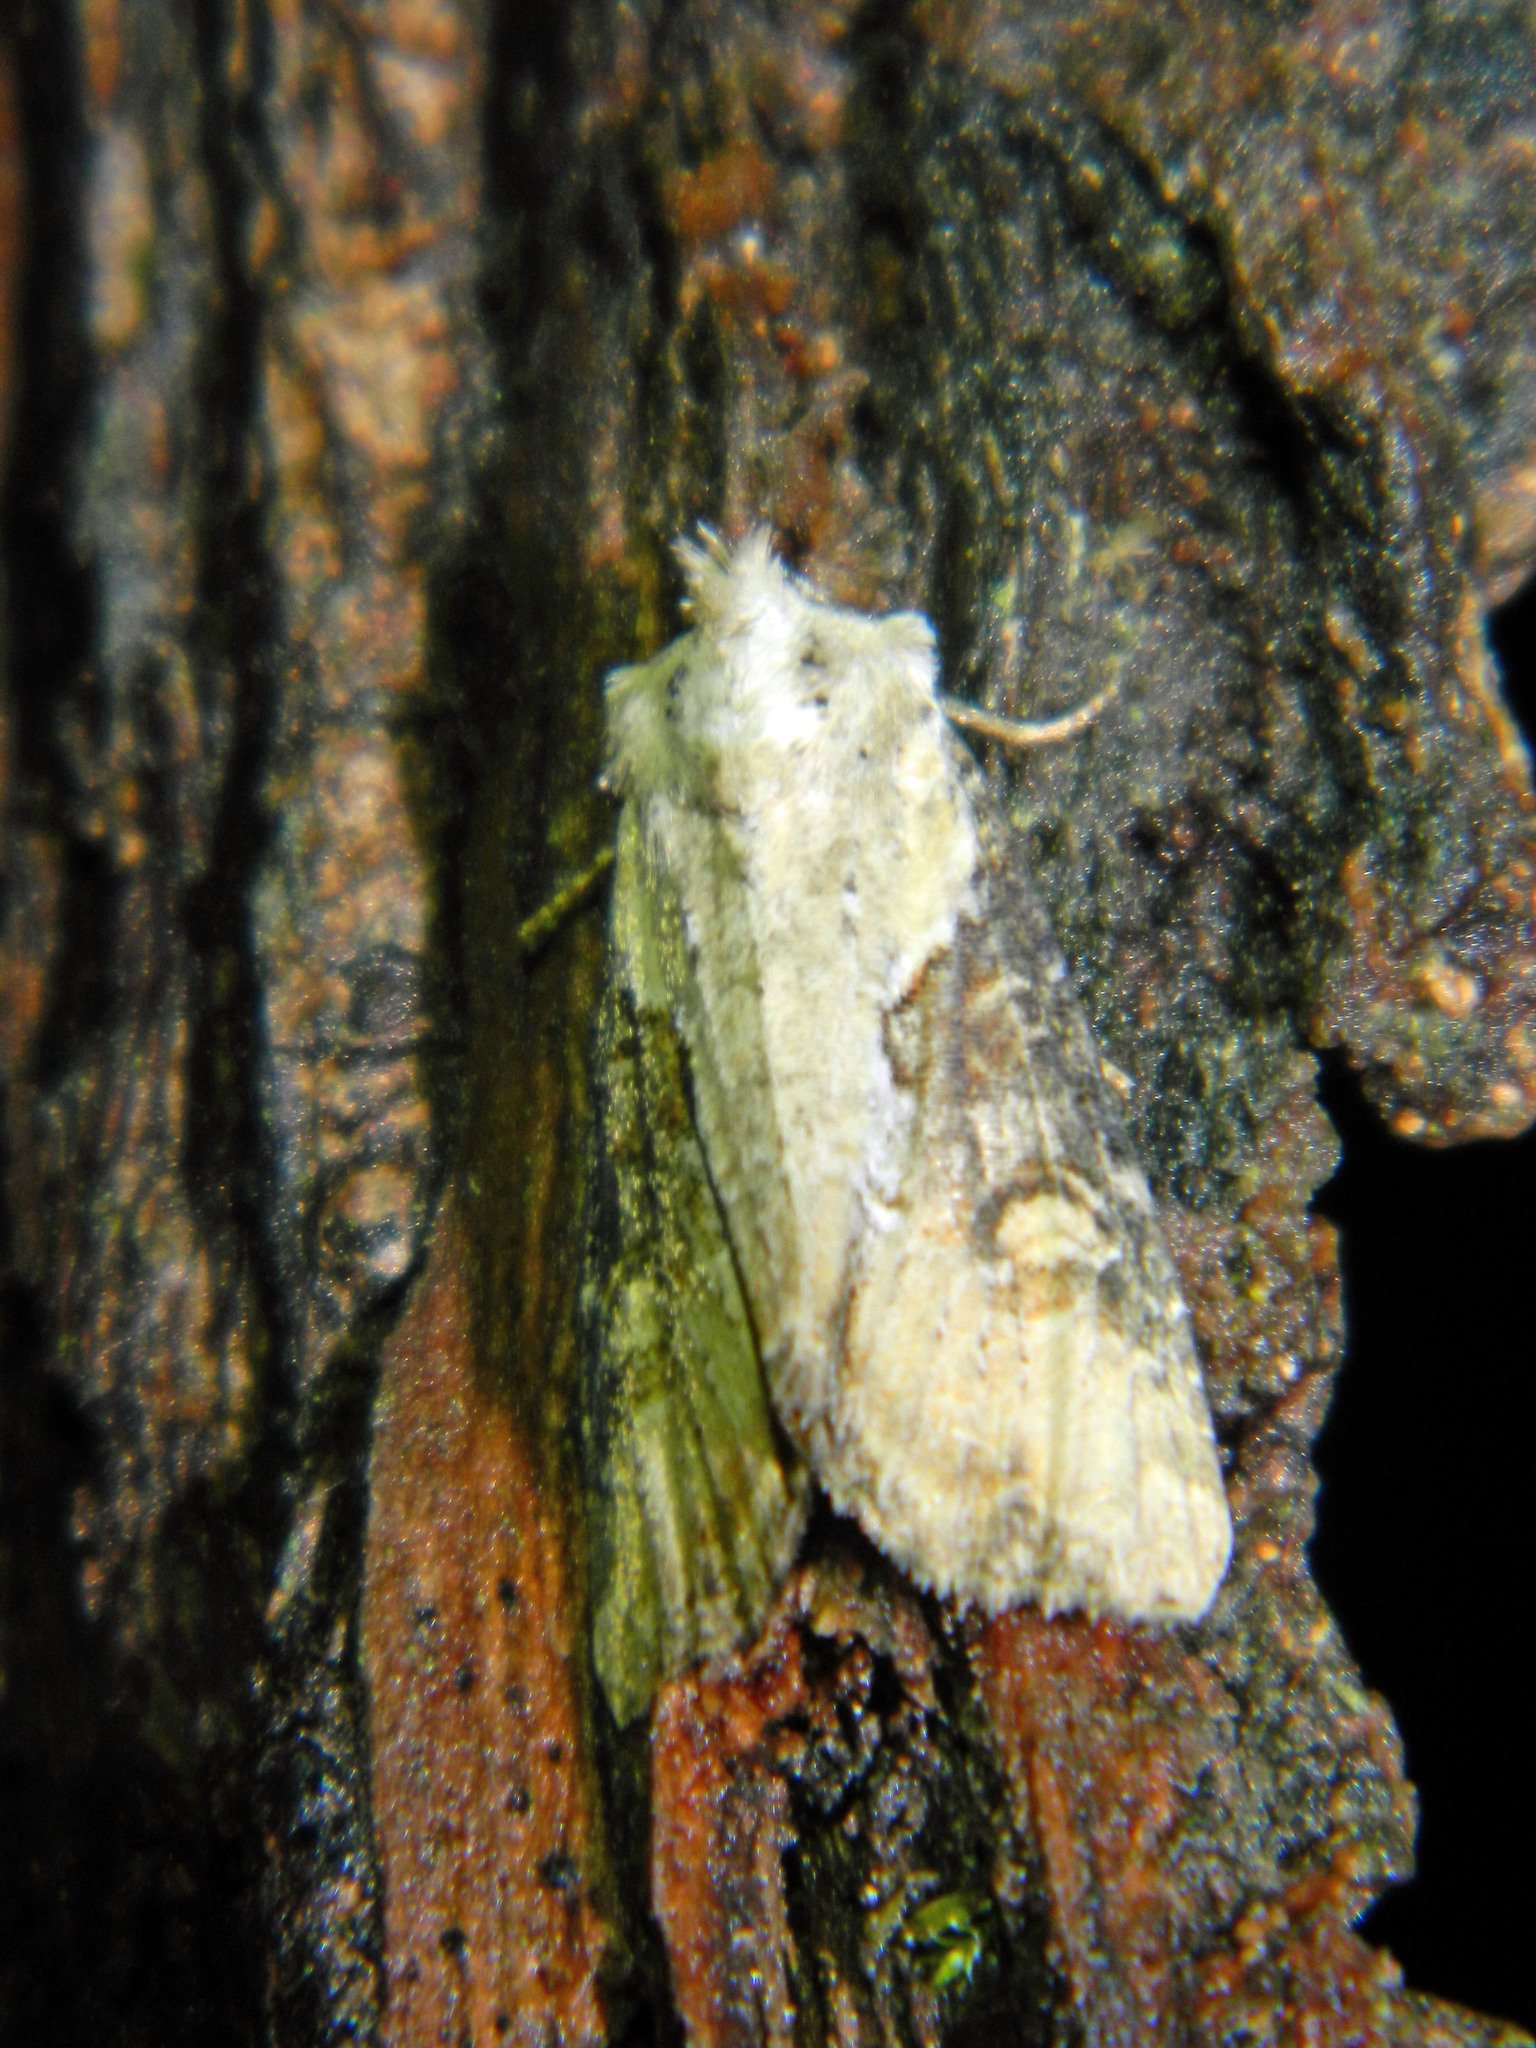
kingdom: Animalia
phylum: Arthropoda
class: Insecta
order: Lepidoptera
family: Noctuidae
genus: Lateroligia
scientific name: Lateroligia ophiogramma
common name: Double lobed
